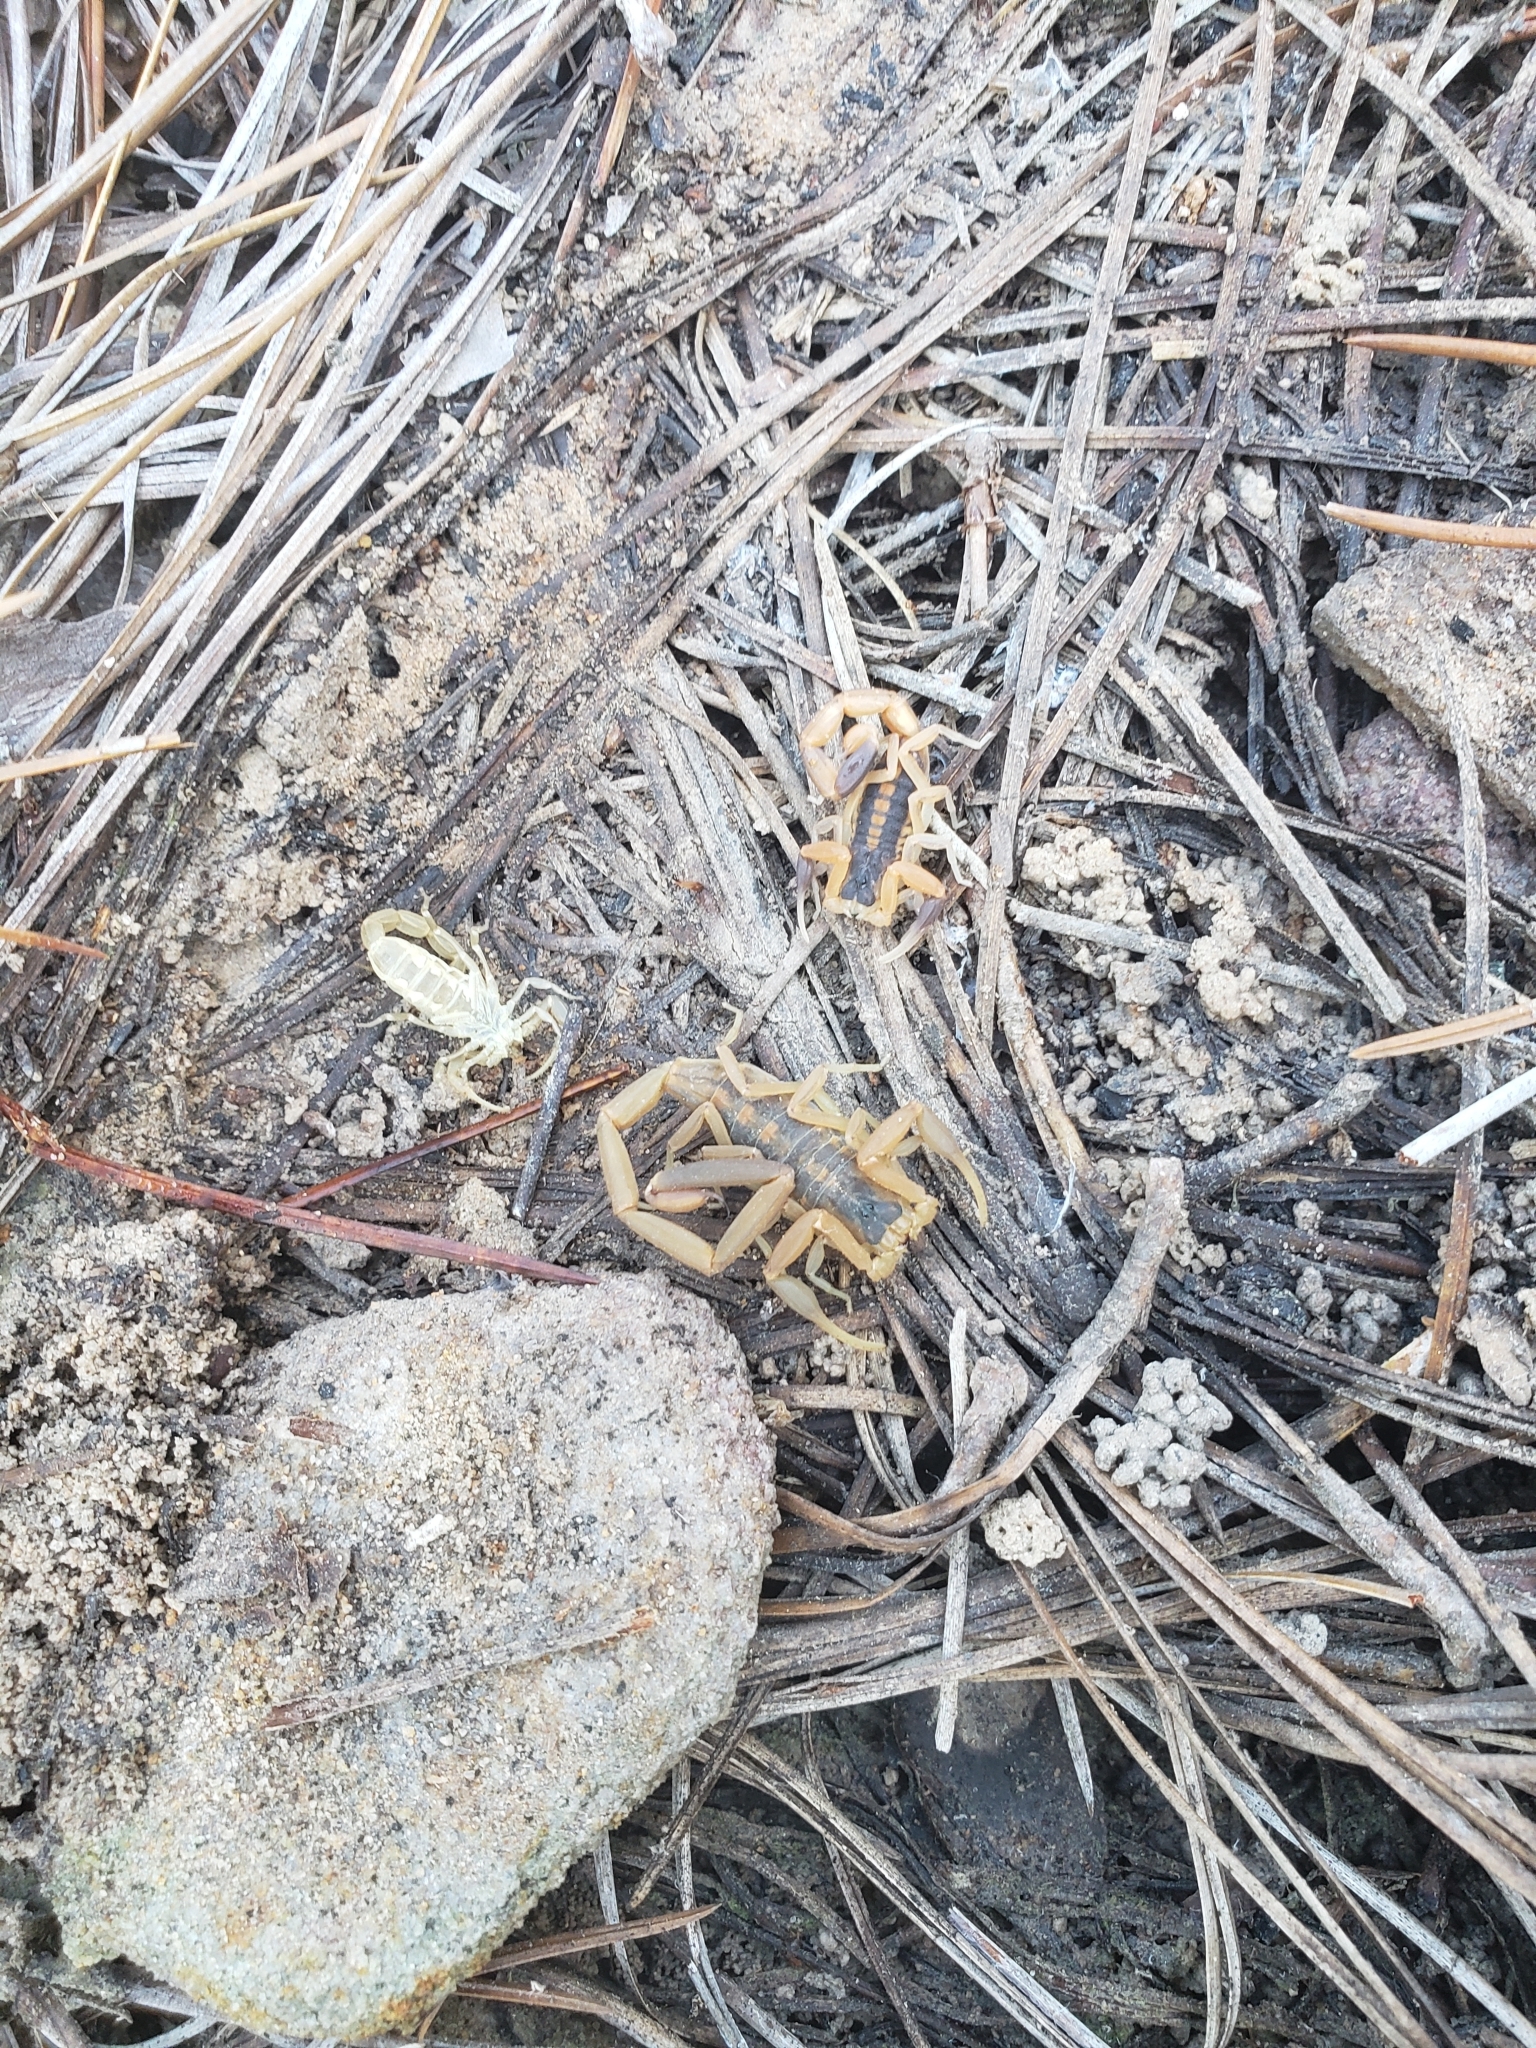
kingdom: Animalia
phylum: Arthropoda
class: Arachnida
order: Scorpiones
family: Buthidae
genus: Centruroides
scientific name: Centruroides vittatus
